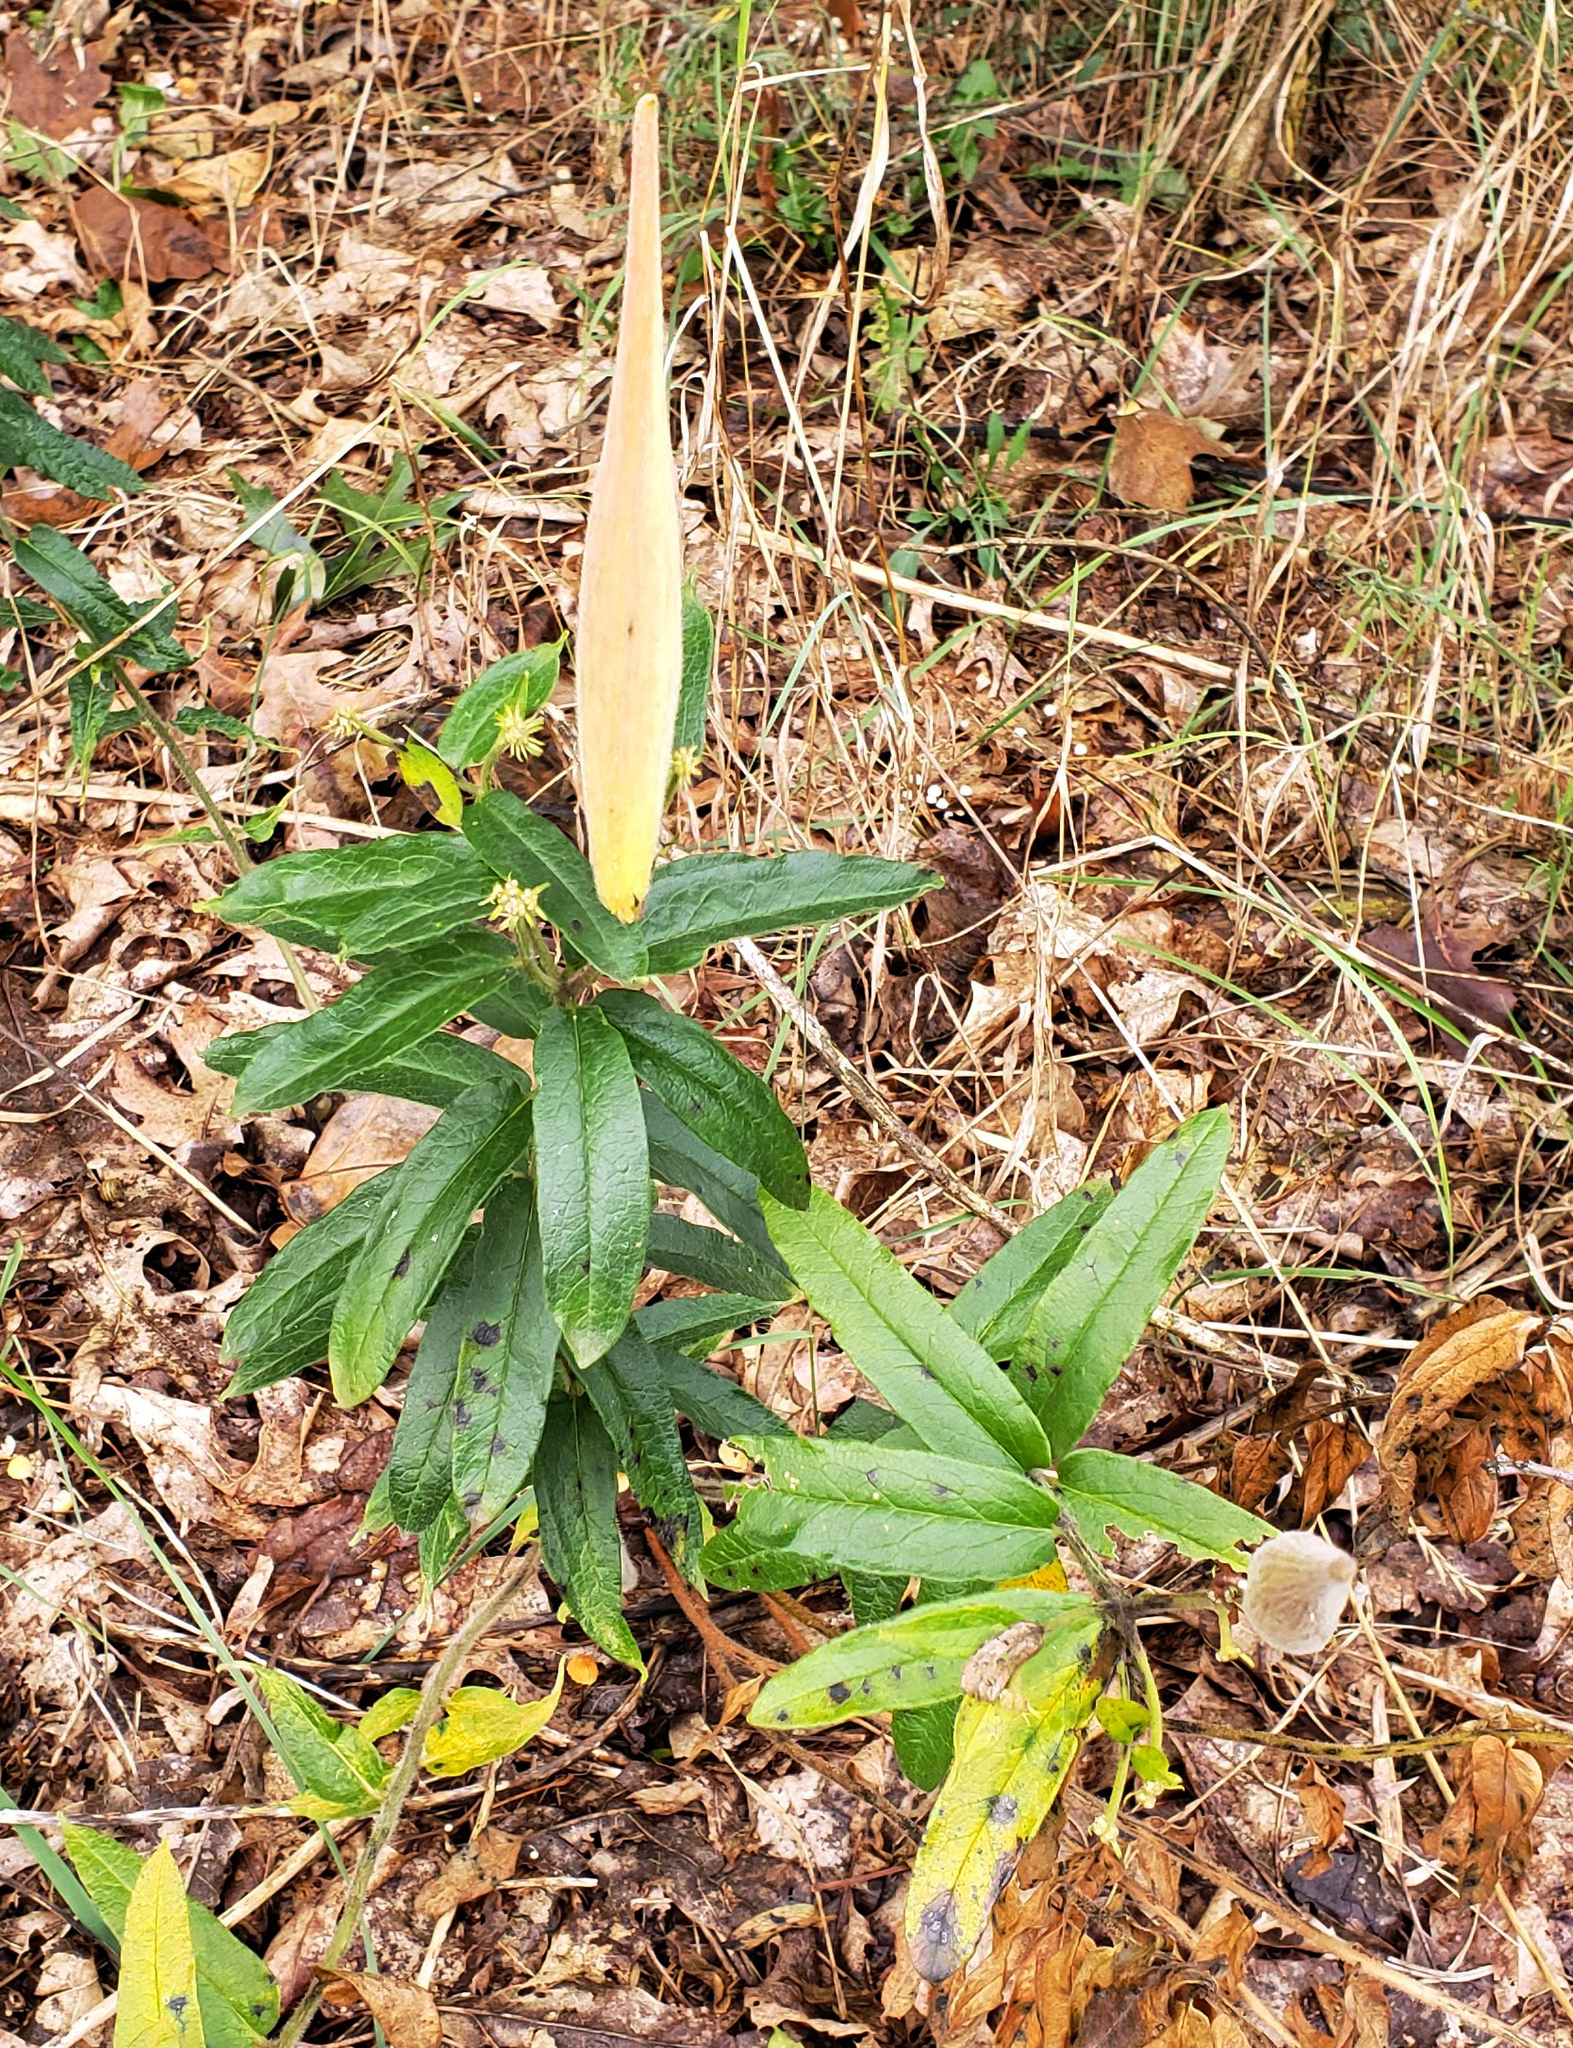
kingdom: Plantae
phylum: Tracheophyta
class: Magnoliopsida
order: Gentianales
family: Apocynaceae
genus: Asclepias
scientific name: Asclepias tuberosa
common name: Butterfly milkweed
